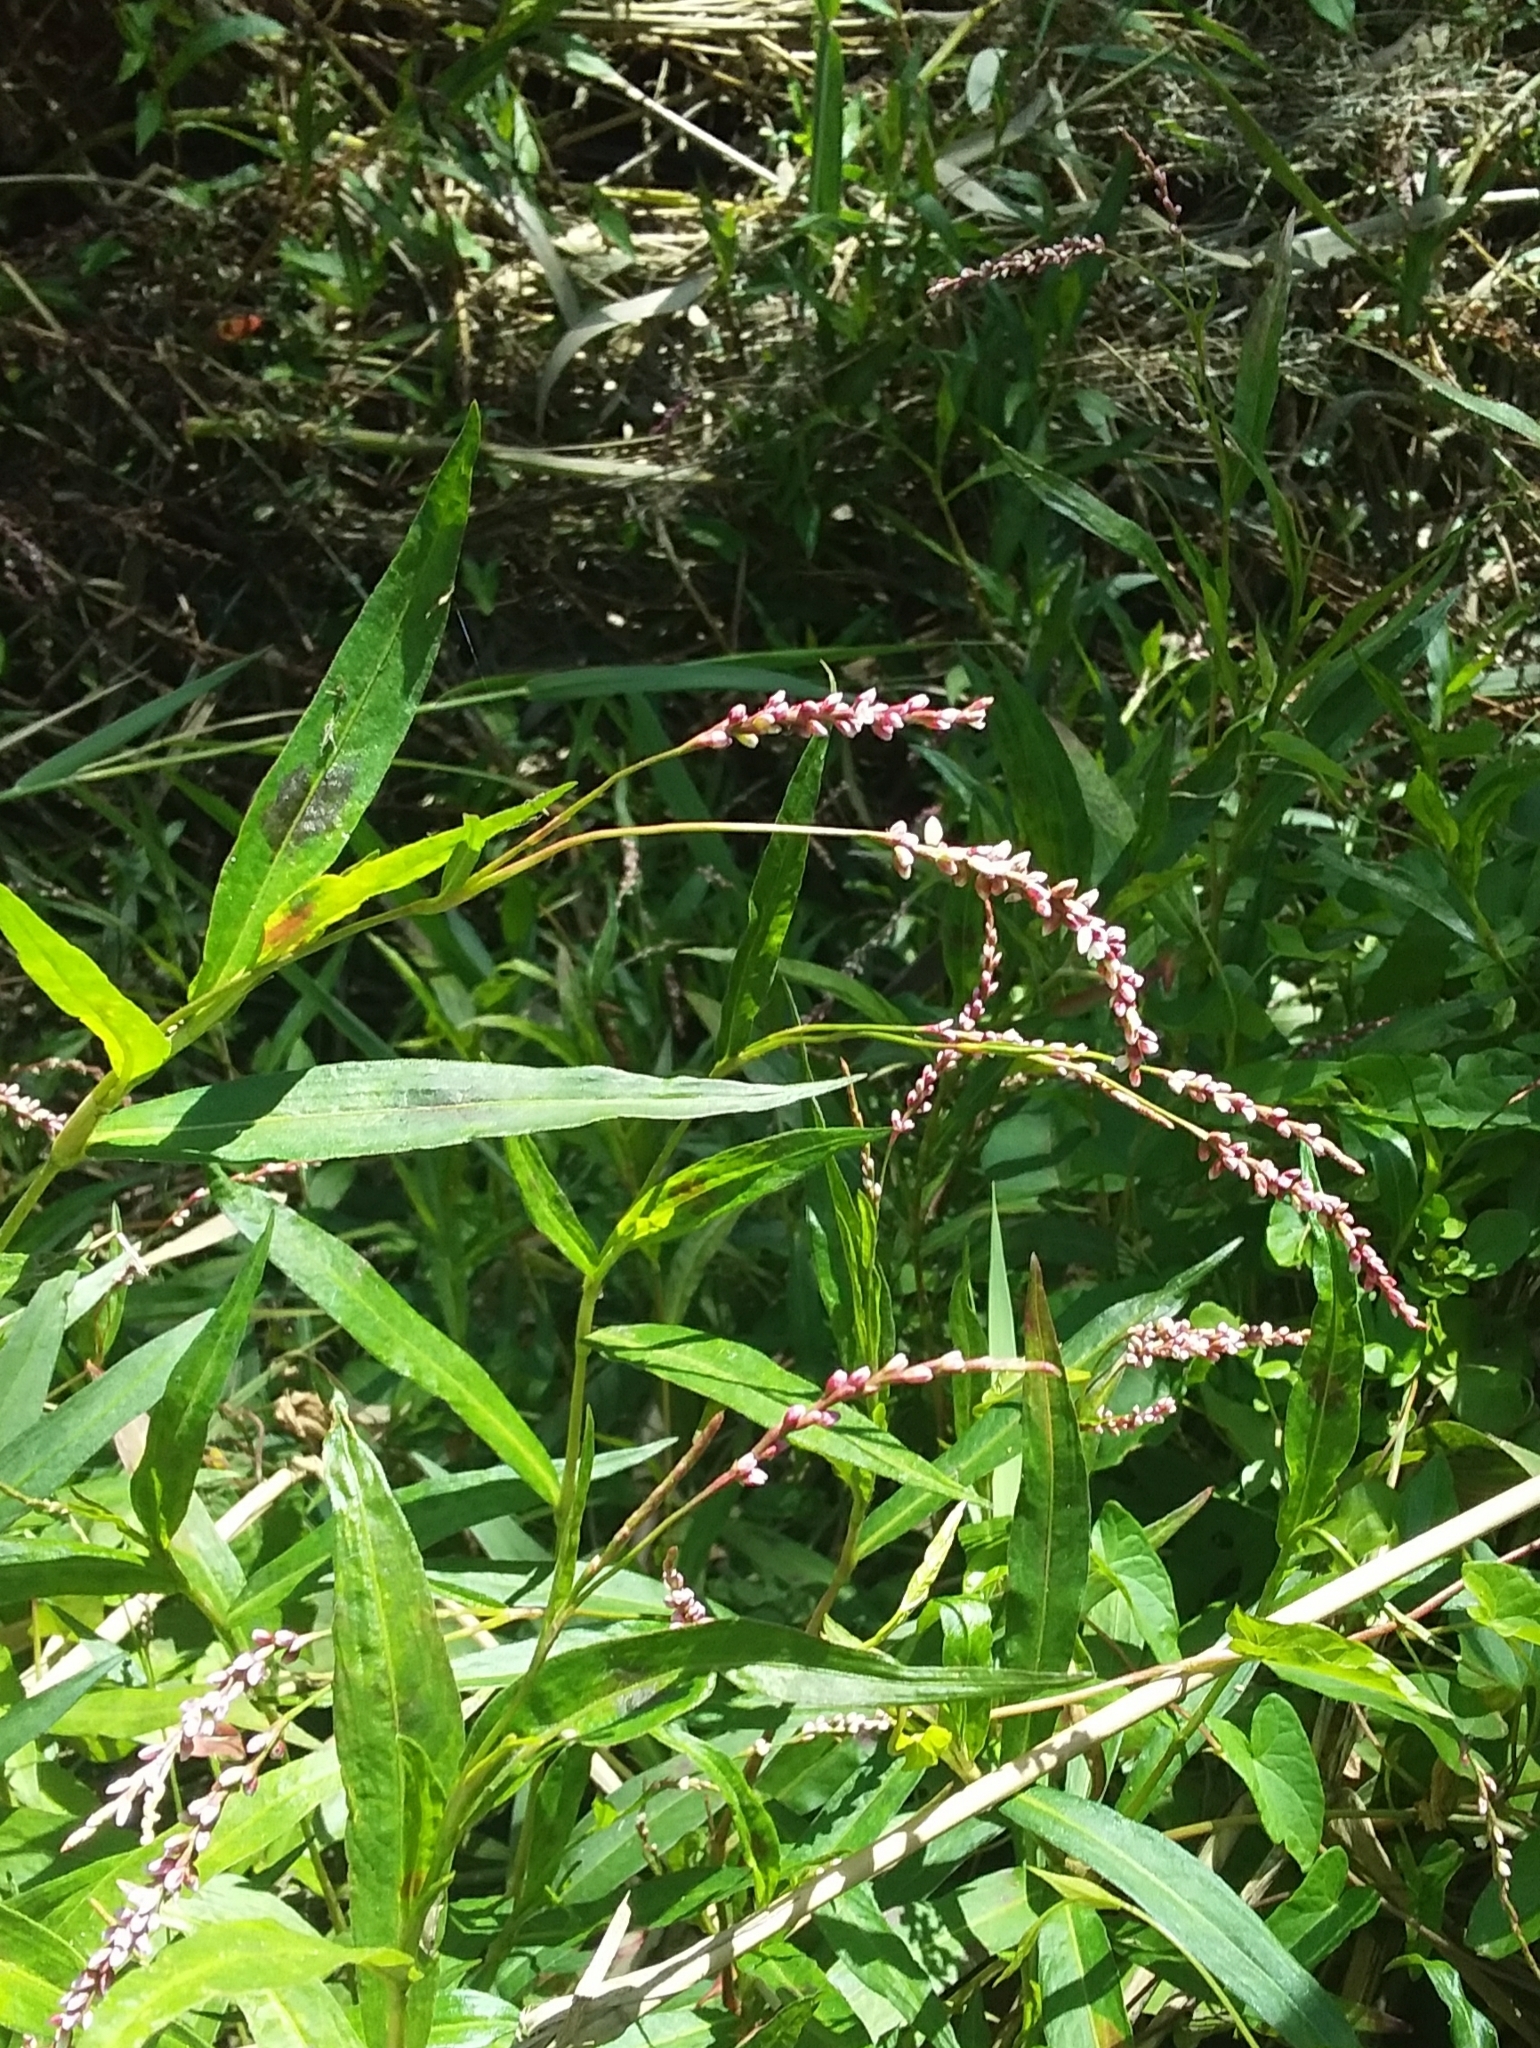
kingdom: Plantae
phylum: Tracheophyta
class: Magnoliopsida
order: Caryophyllales
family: Polygonaceae
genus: Persicaria
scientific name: Persicaria decipiens
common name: Willow-weed
